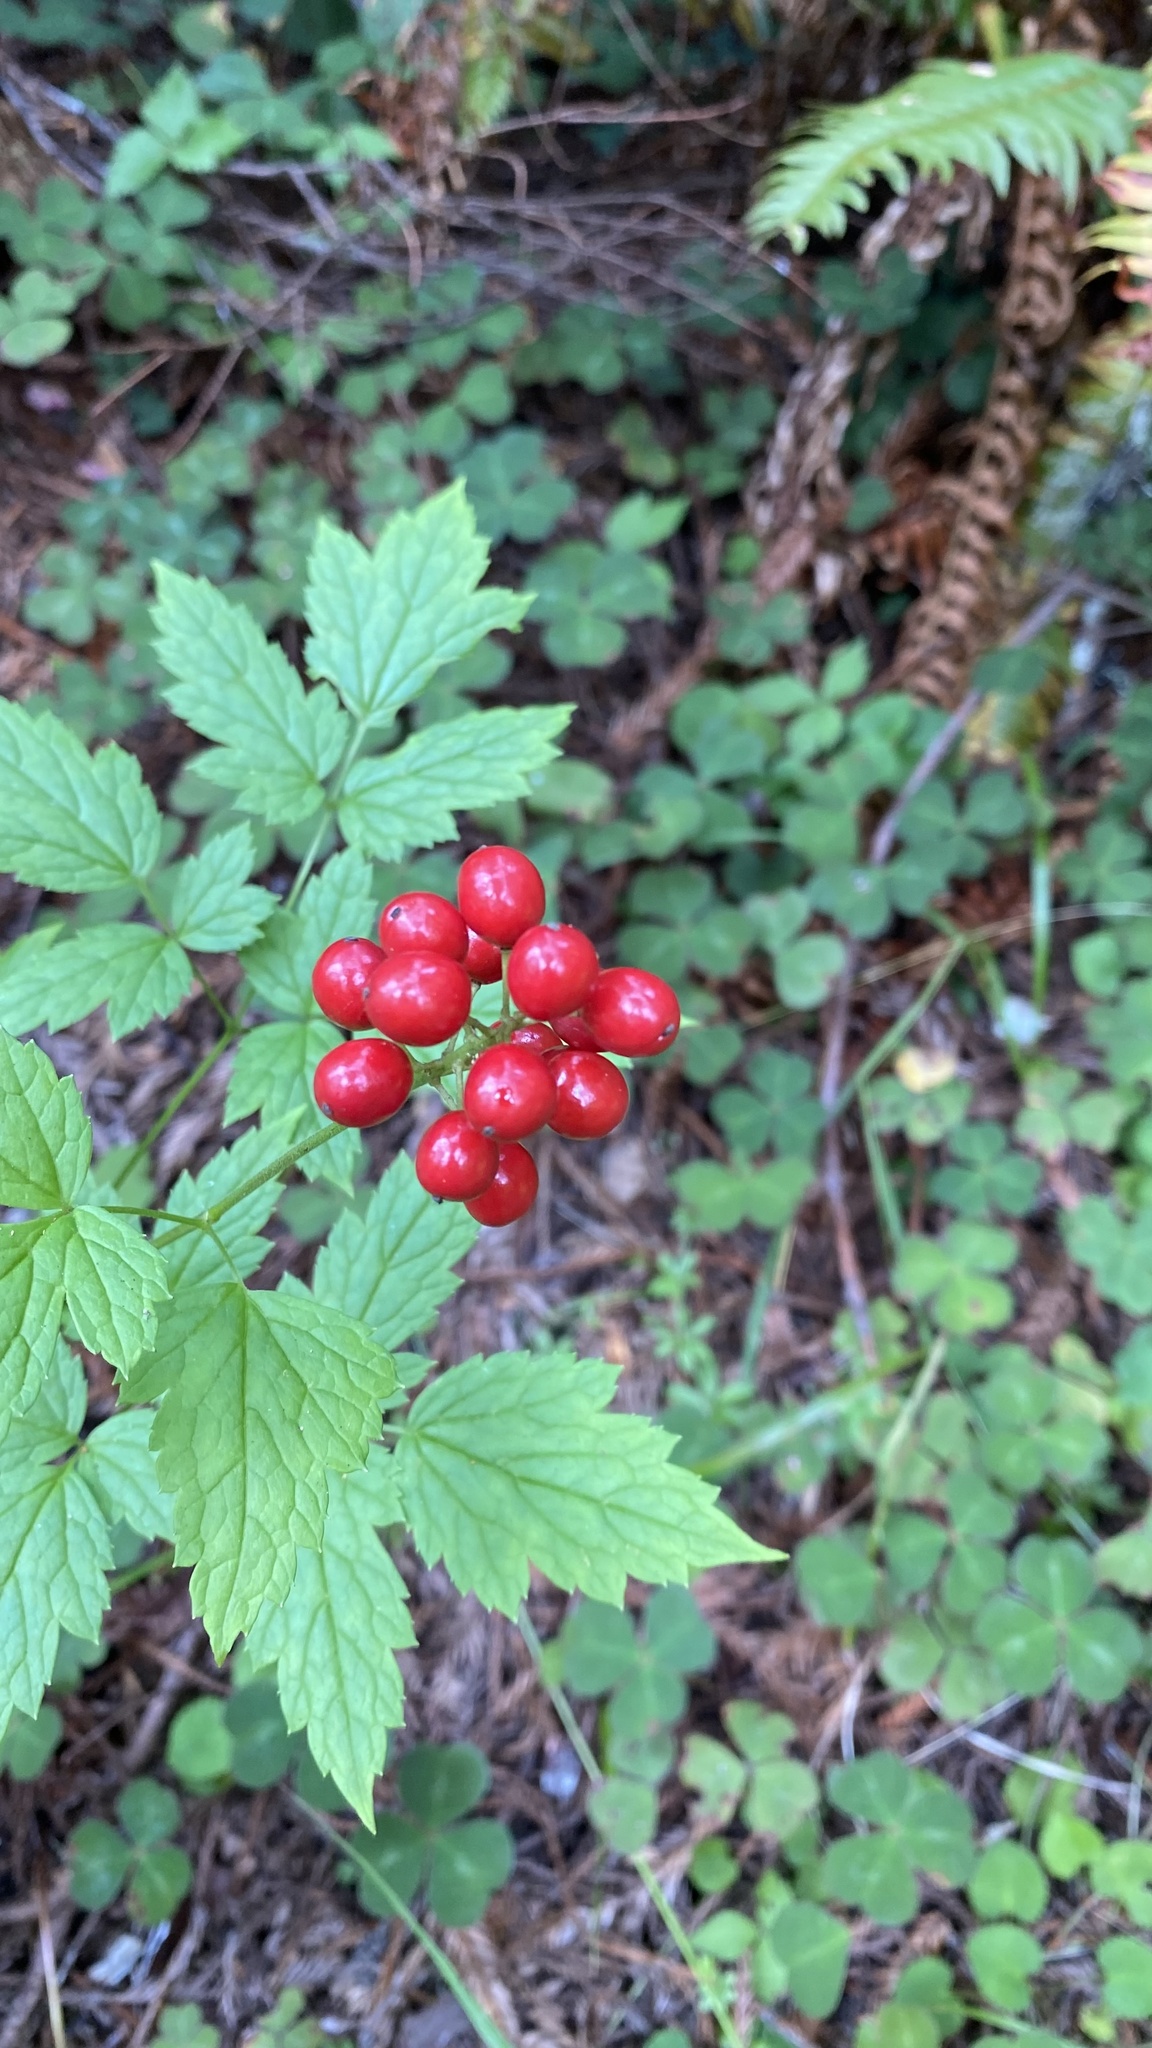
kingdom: Plantae
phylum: Tracheophyta
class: Magnoliopsida
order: Ranunculales
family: Ranunculaceae
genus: Actaea
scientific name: Actaea rubra
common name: Red baneberry
